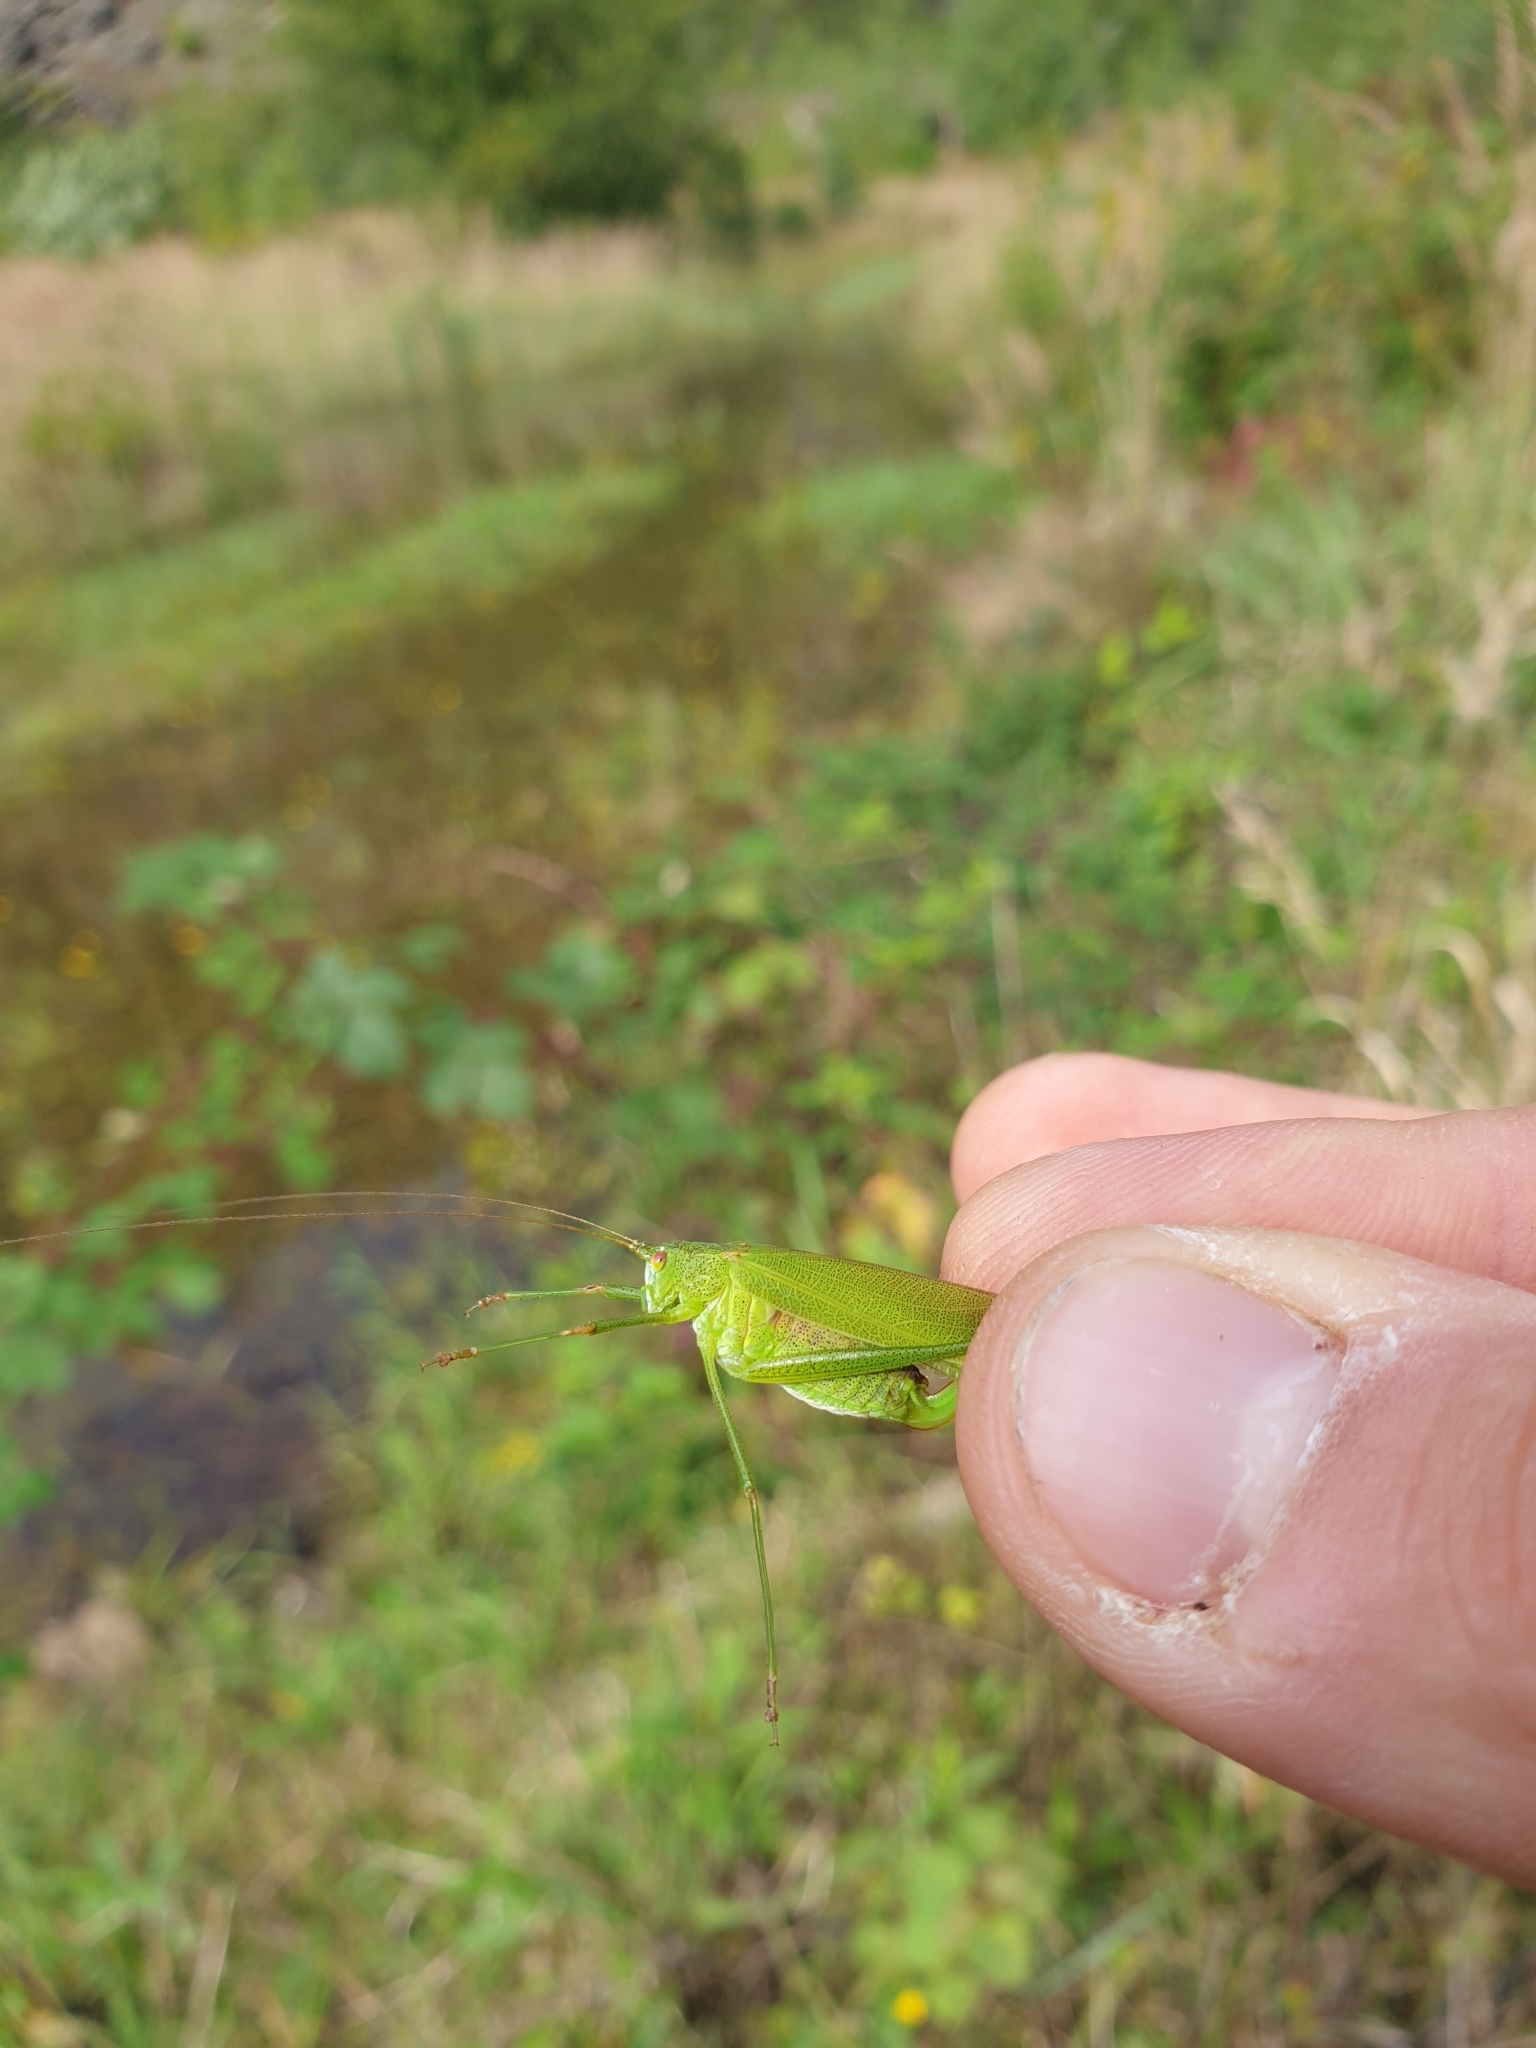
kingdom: Animalia
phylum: Arthropoda
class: Insecta
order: Orthoptera
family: Tettigoniidae
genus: Phaneroptera
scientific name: Phaneroptera falcata
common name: Sickle-bearing bush-cricket
